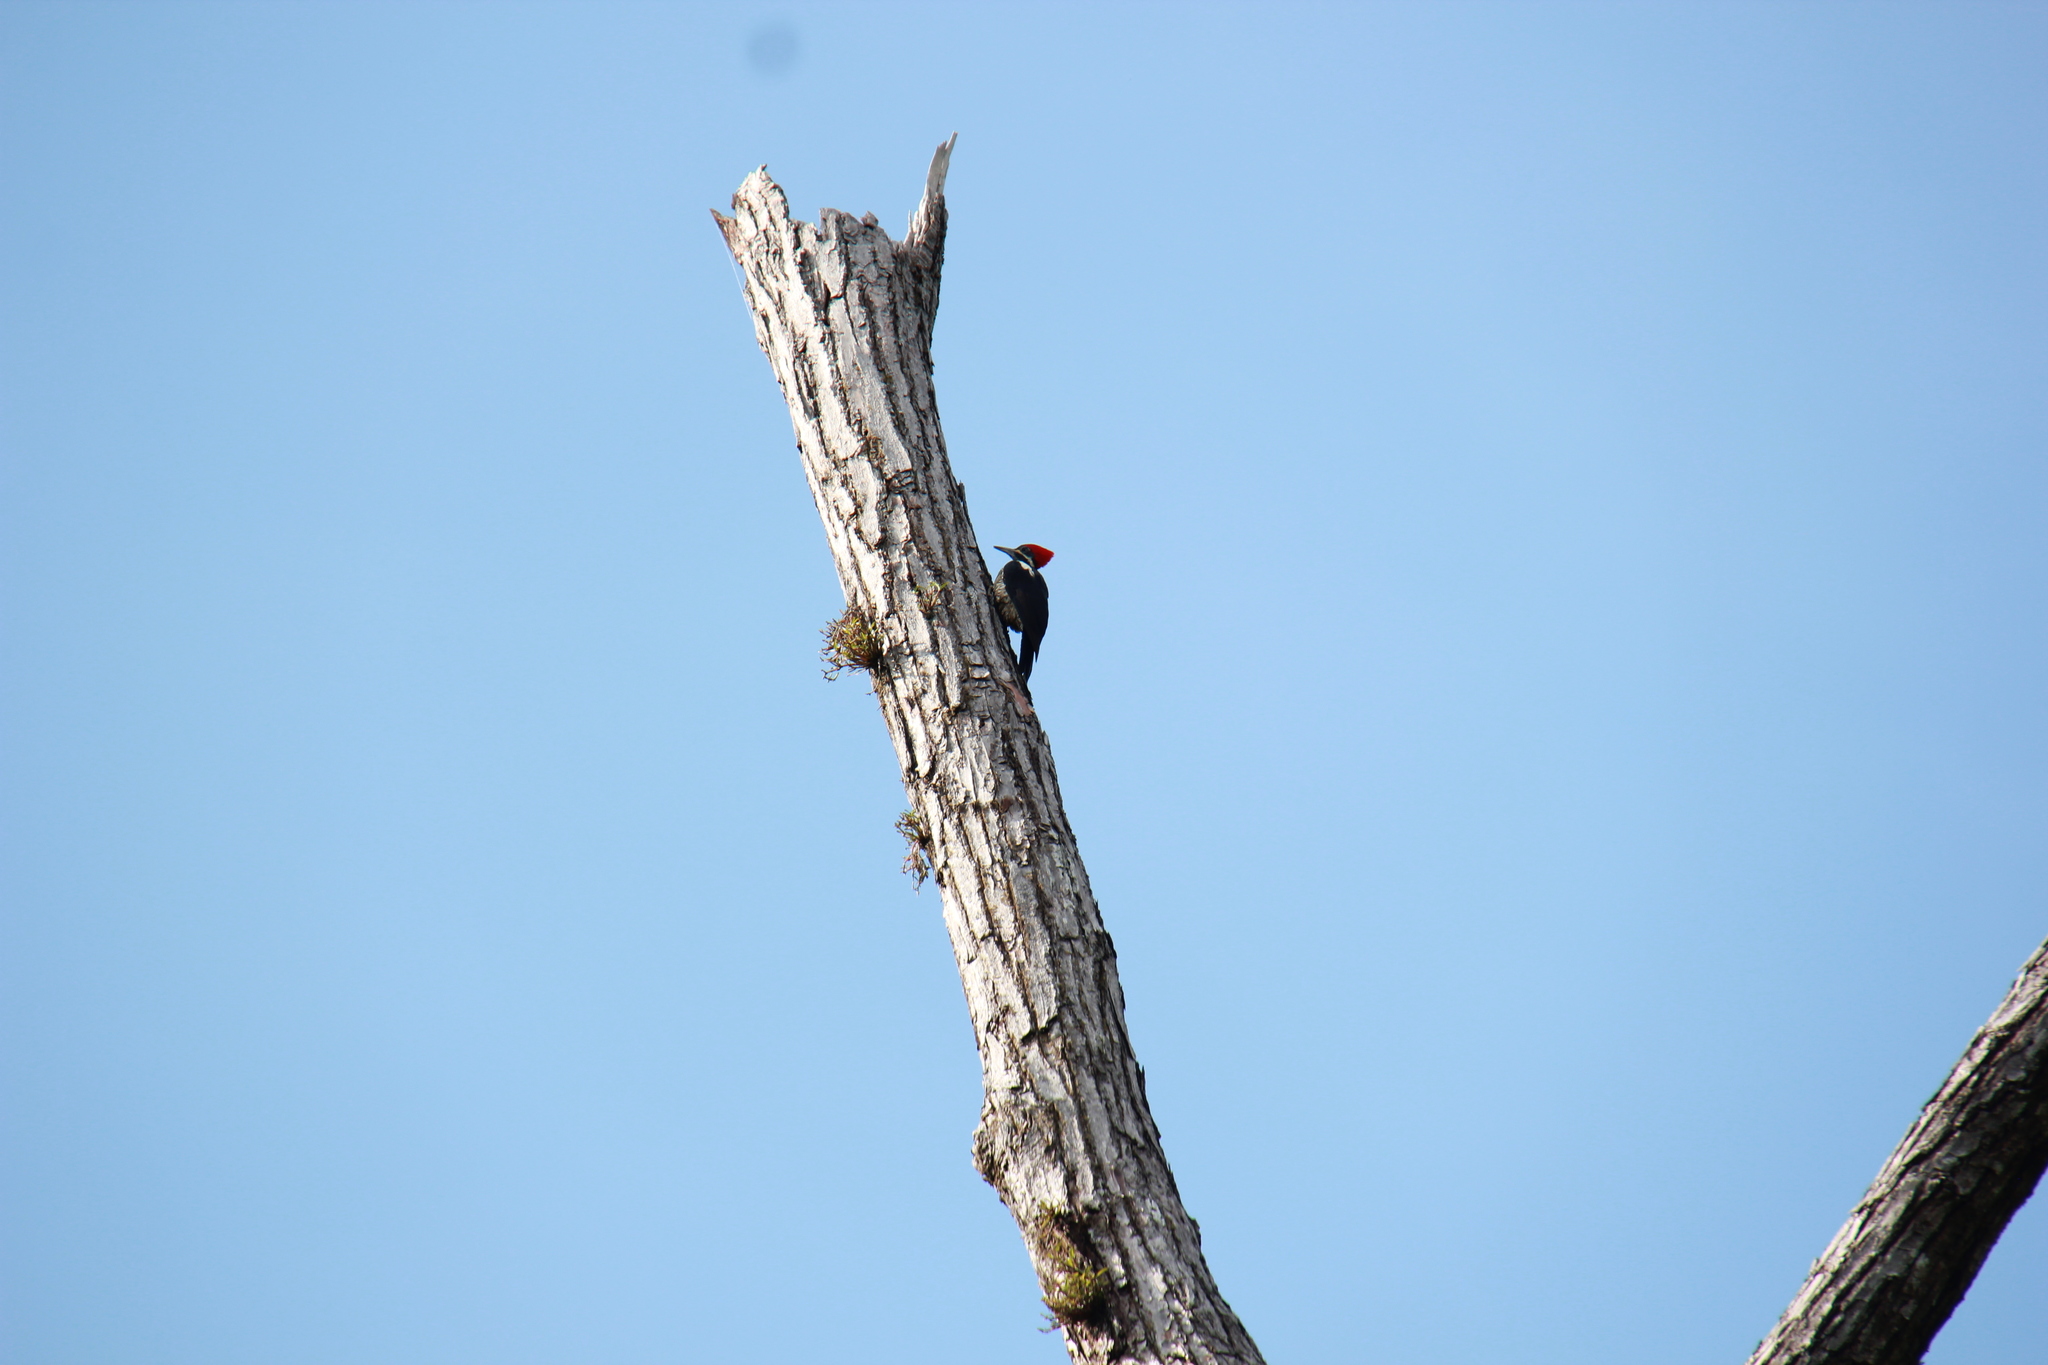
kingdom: Animalia
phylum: Chordata
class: Aves
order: Piciformes
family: Picidae
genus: Dryocopus
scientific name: Dryocopus lineatus
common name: Lineated woodpecker
